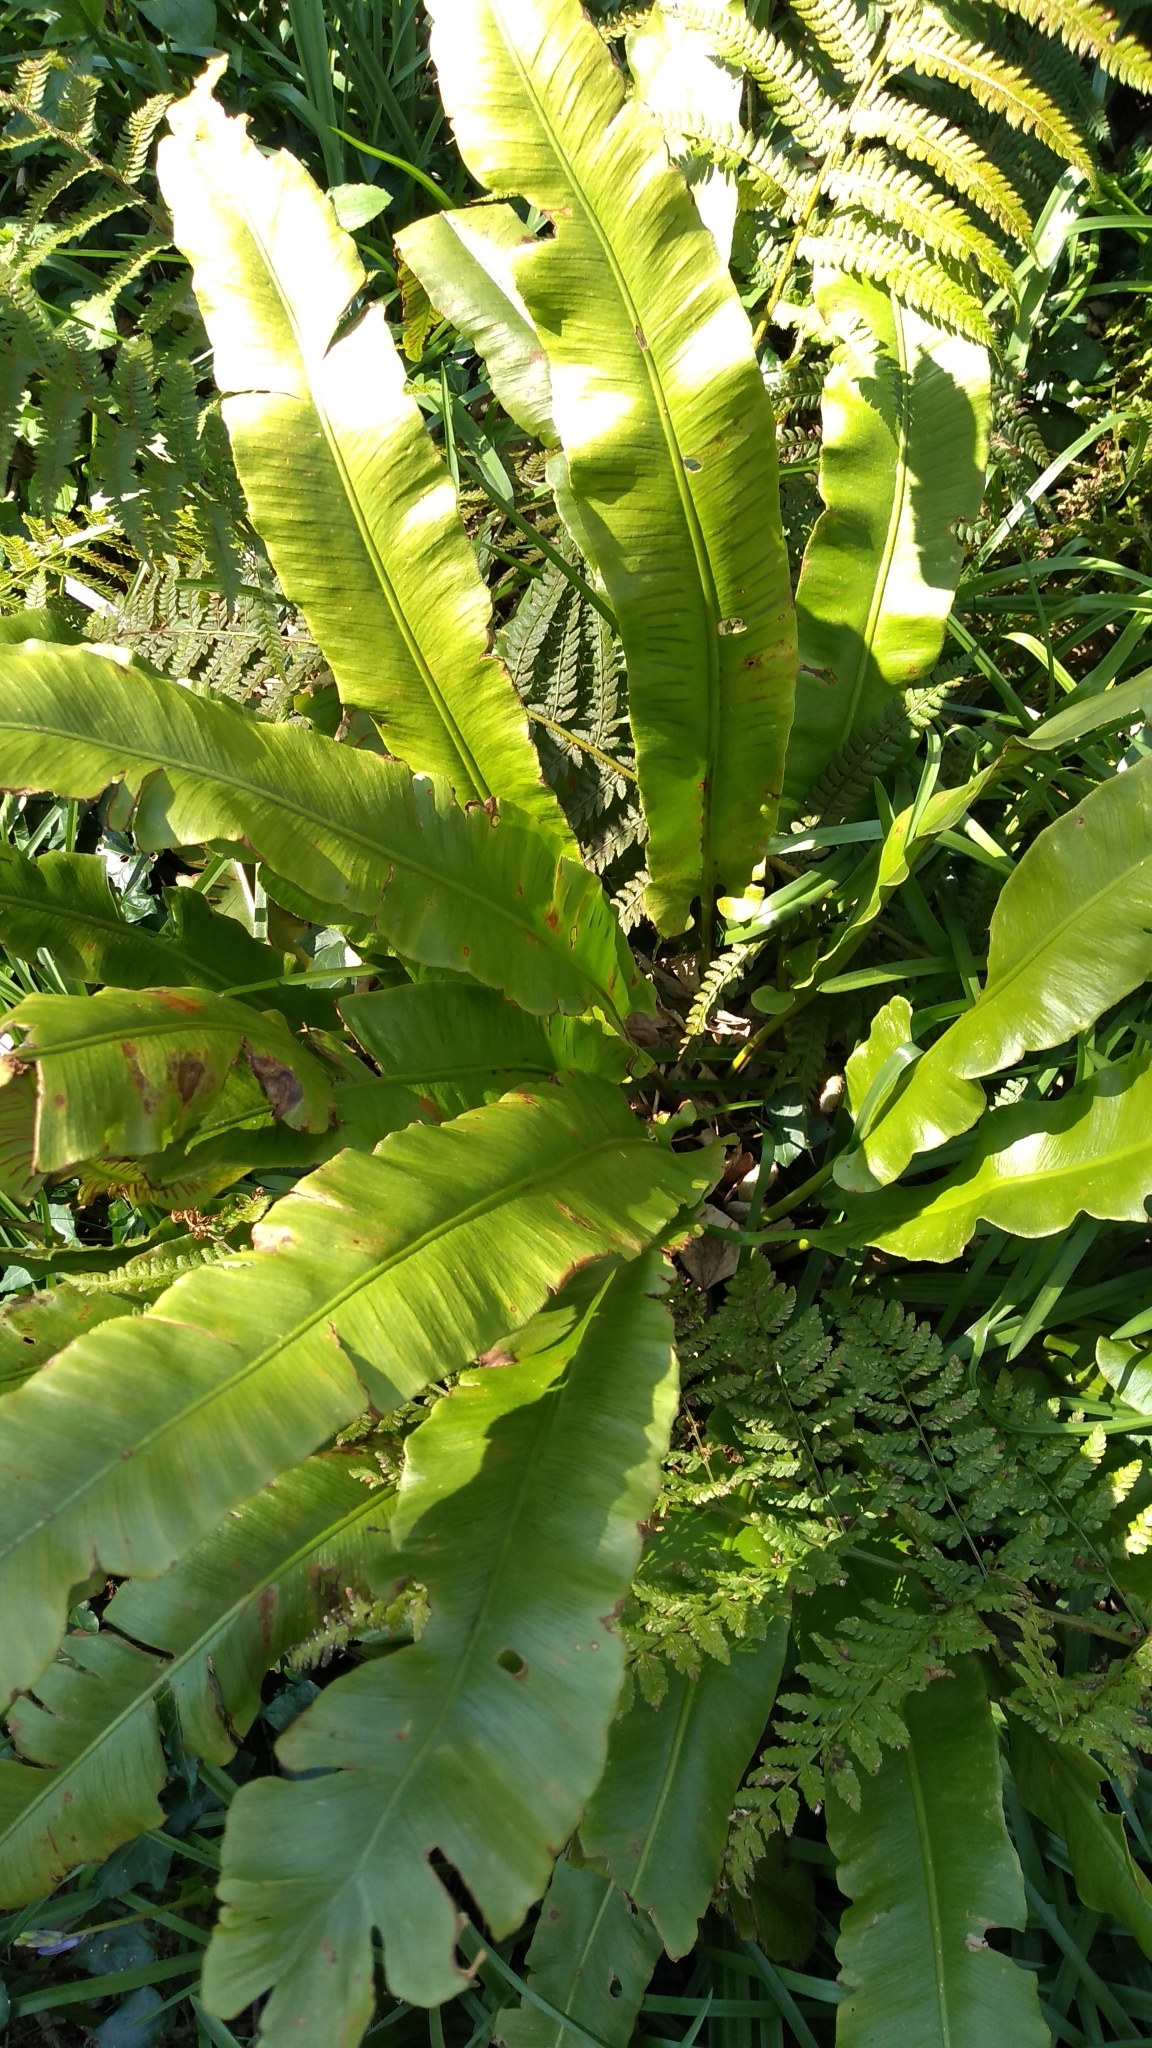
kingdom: Plantae
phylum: Tracheophyta
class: Polypodiopsida
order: Polypodiales
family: Aspleniaceae
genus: Asplenium
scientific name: Asplenium scolopendrium
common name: Hart's-tongue fern
